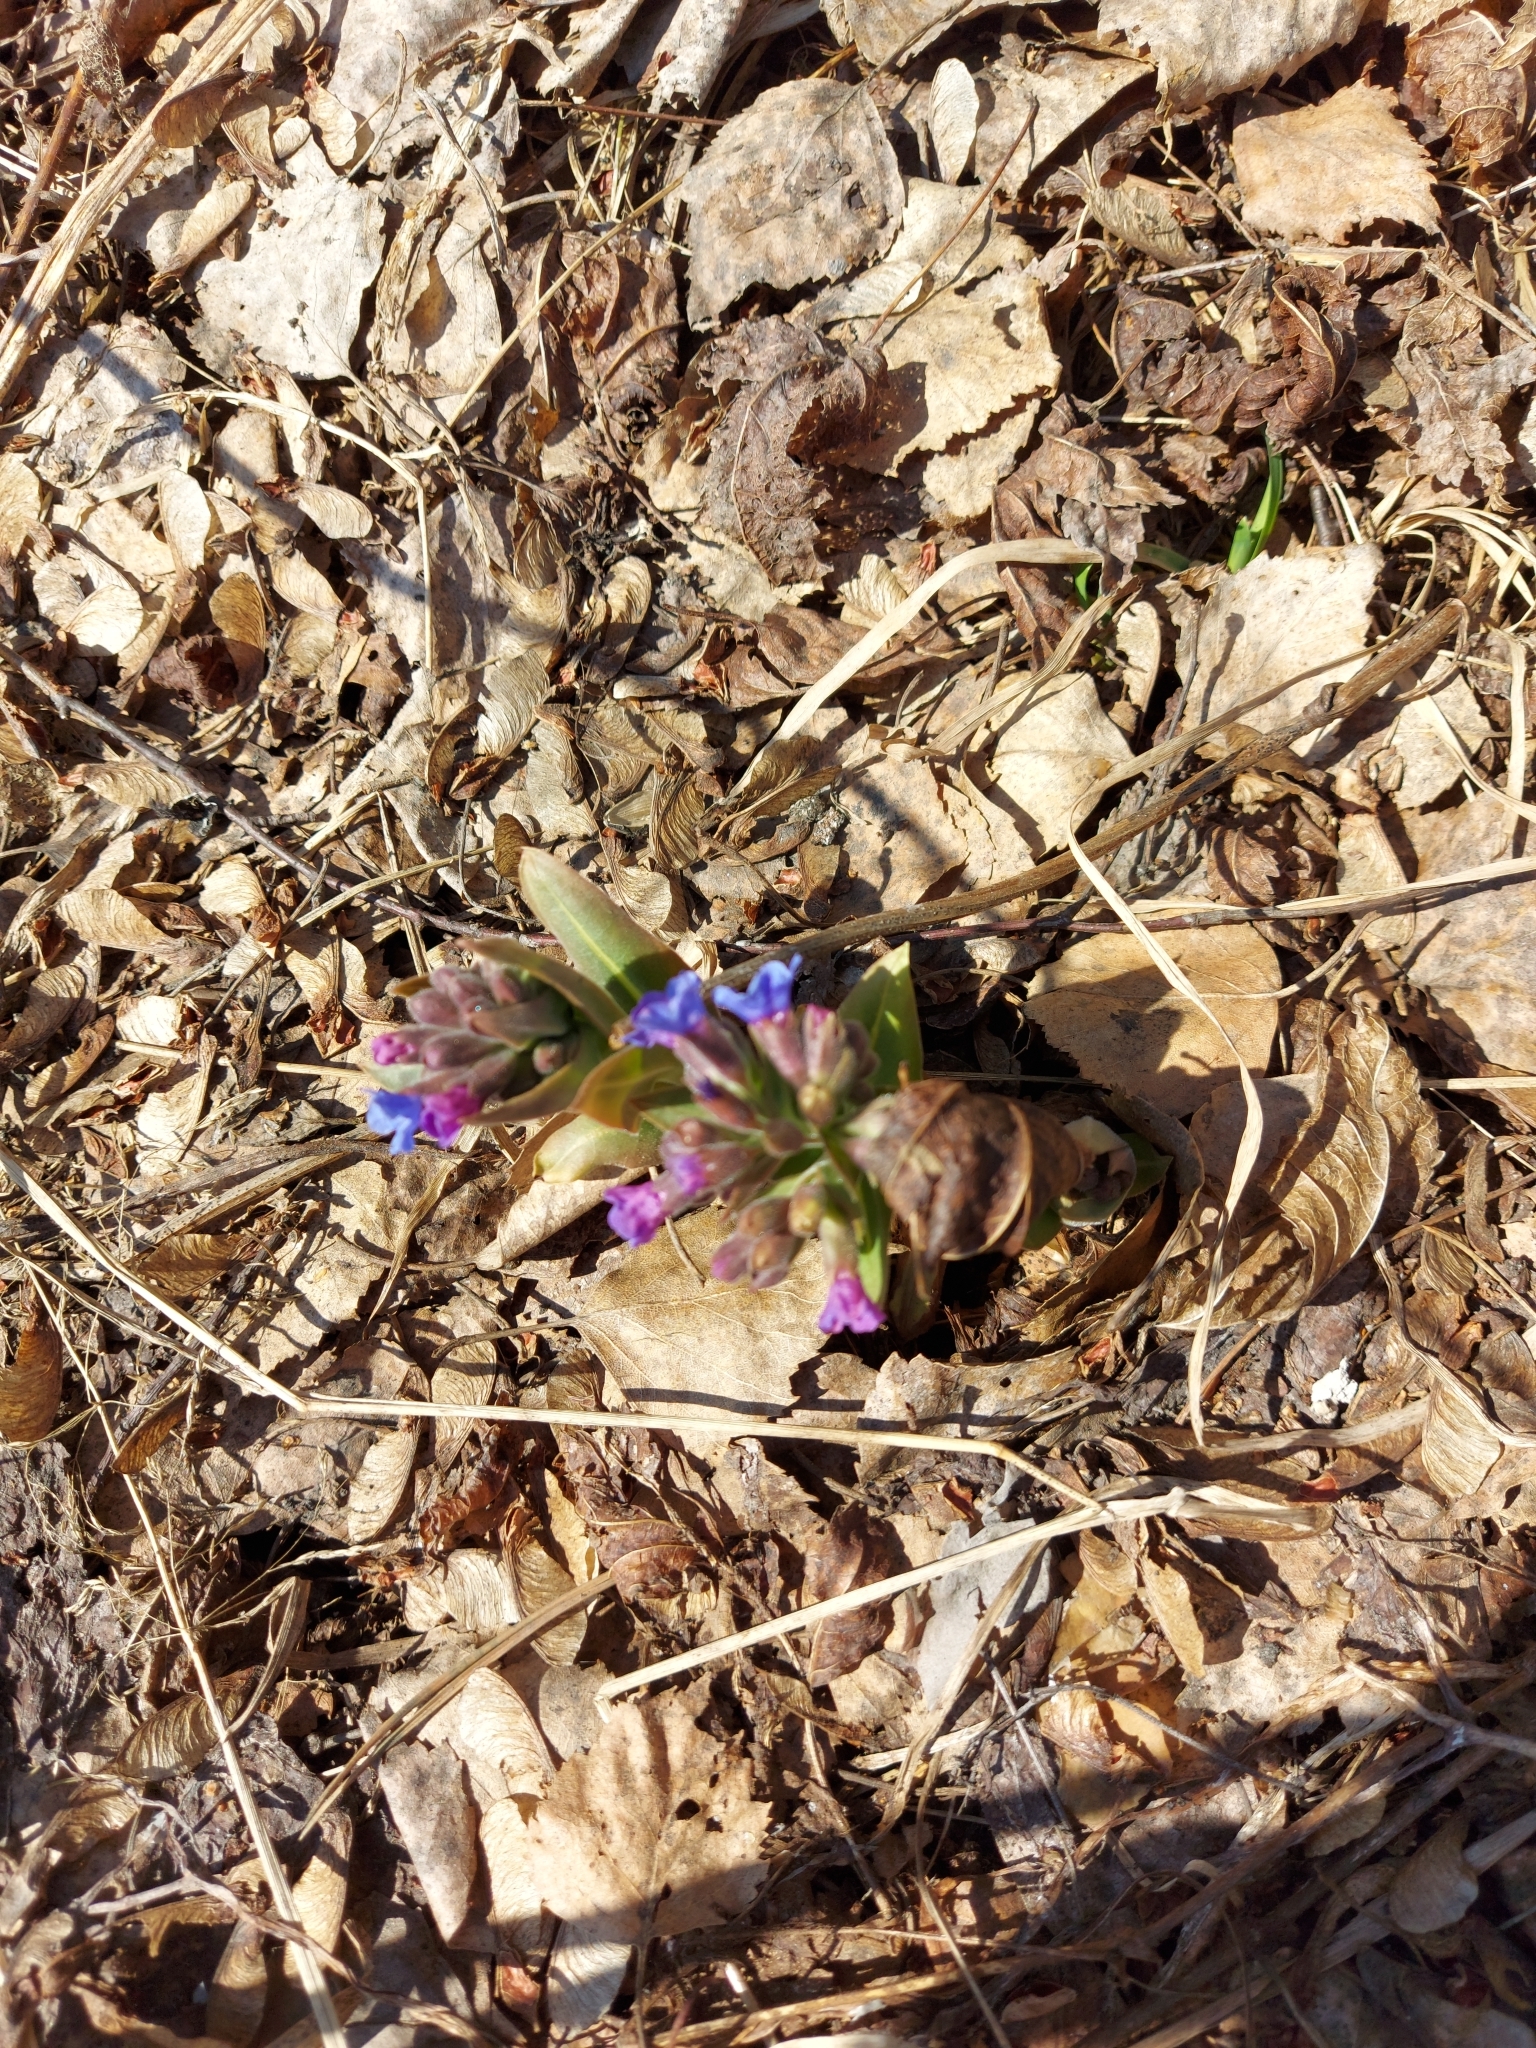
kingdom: Plantae
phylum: Tracheophyta
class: Magnoliopsida
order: Boraginales
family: Boraginaceae
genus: Pulmonaria
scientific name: Pulmonaria mollis
